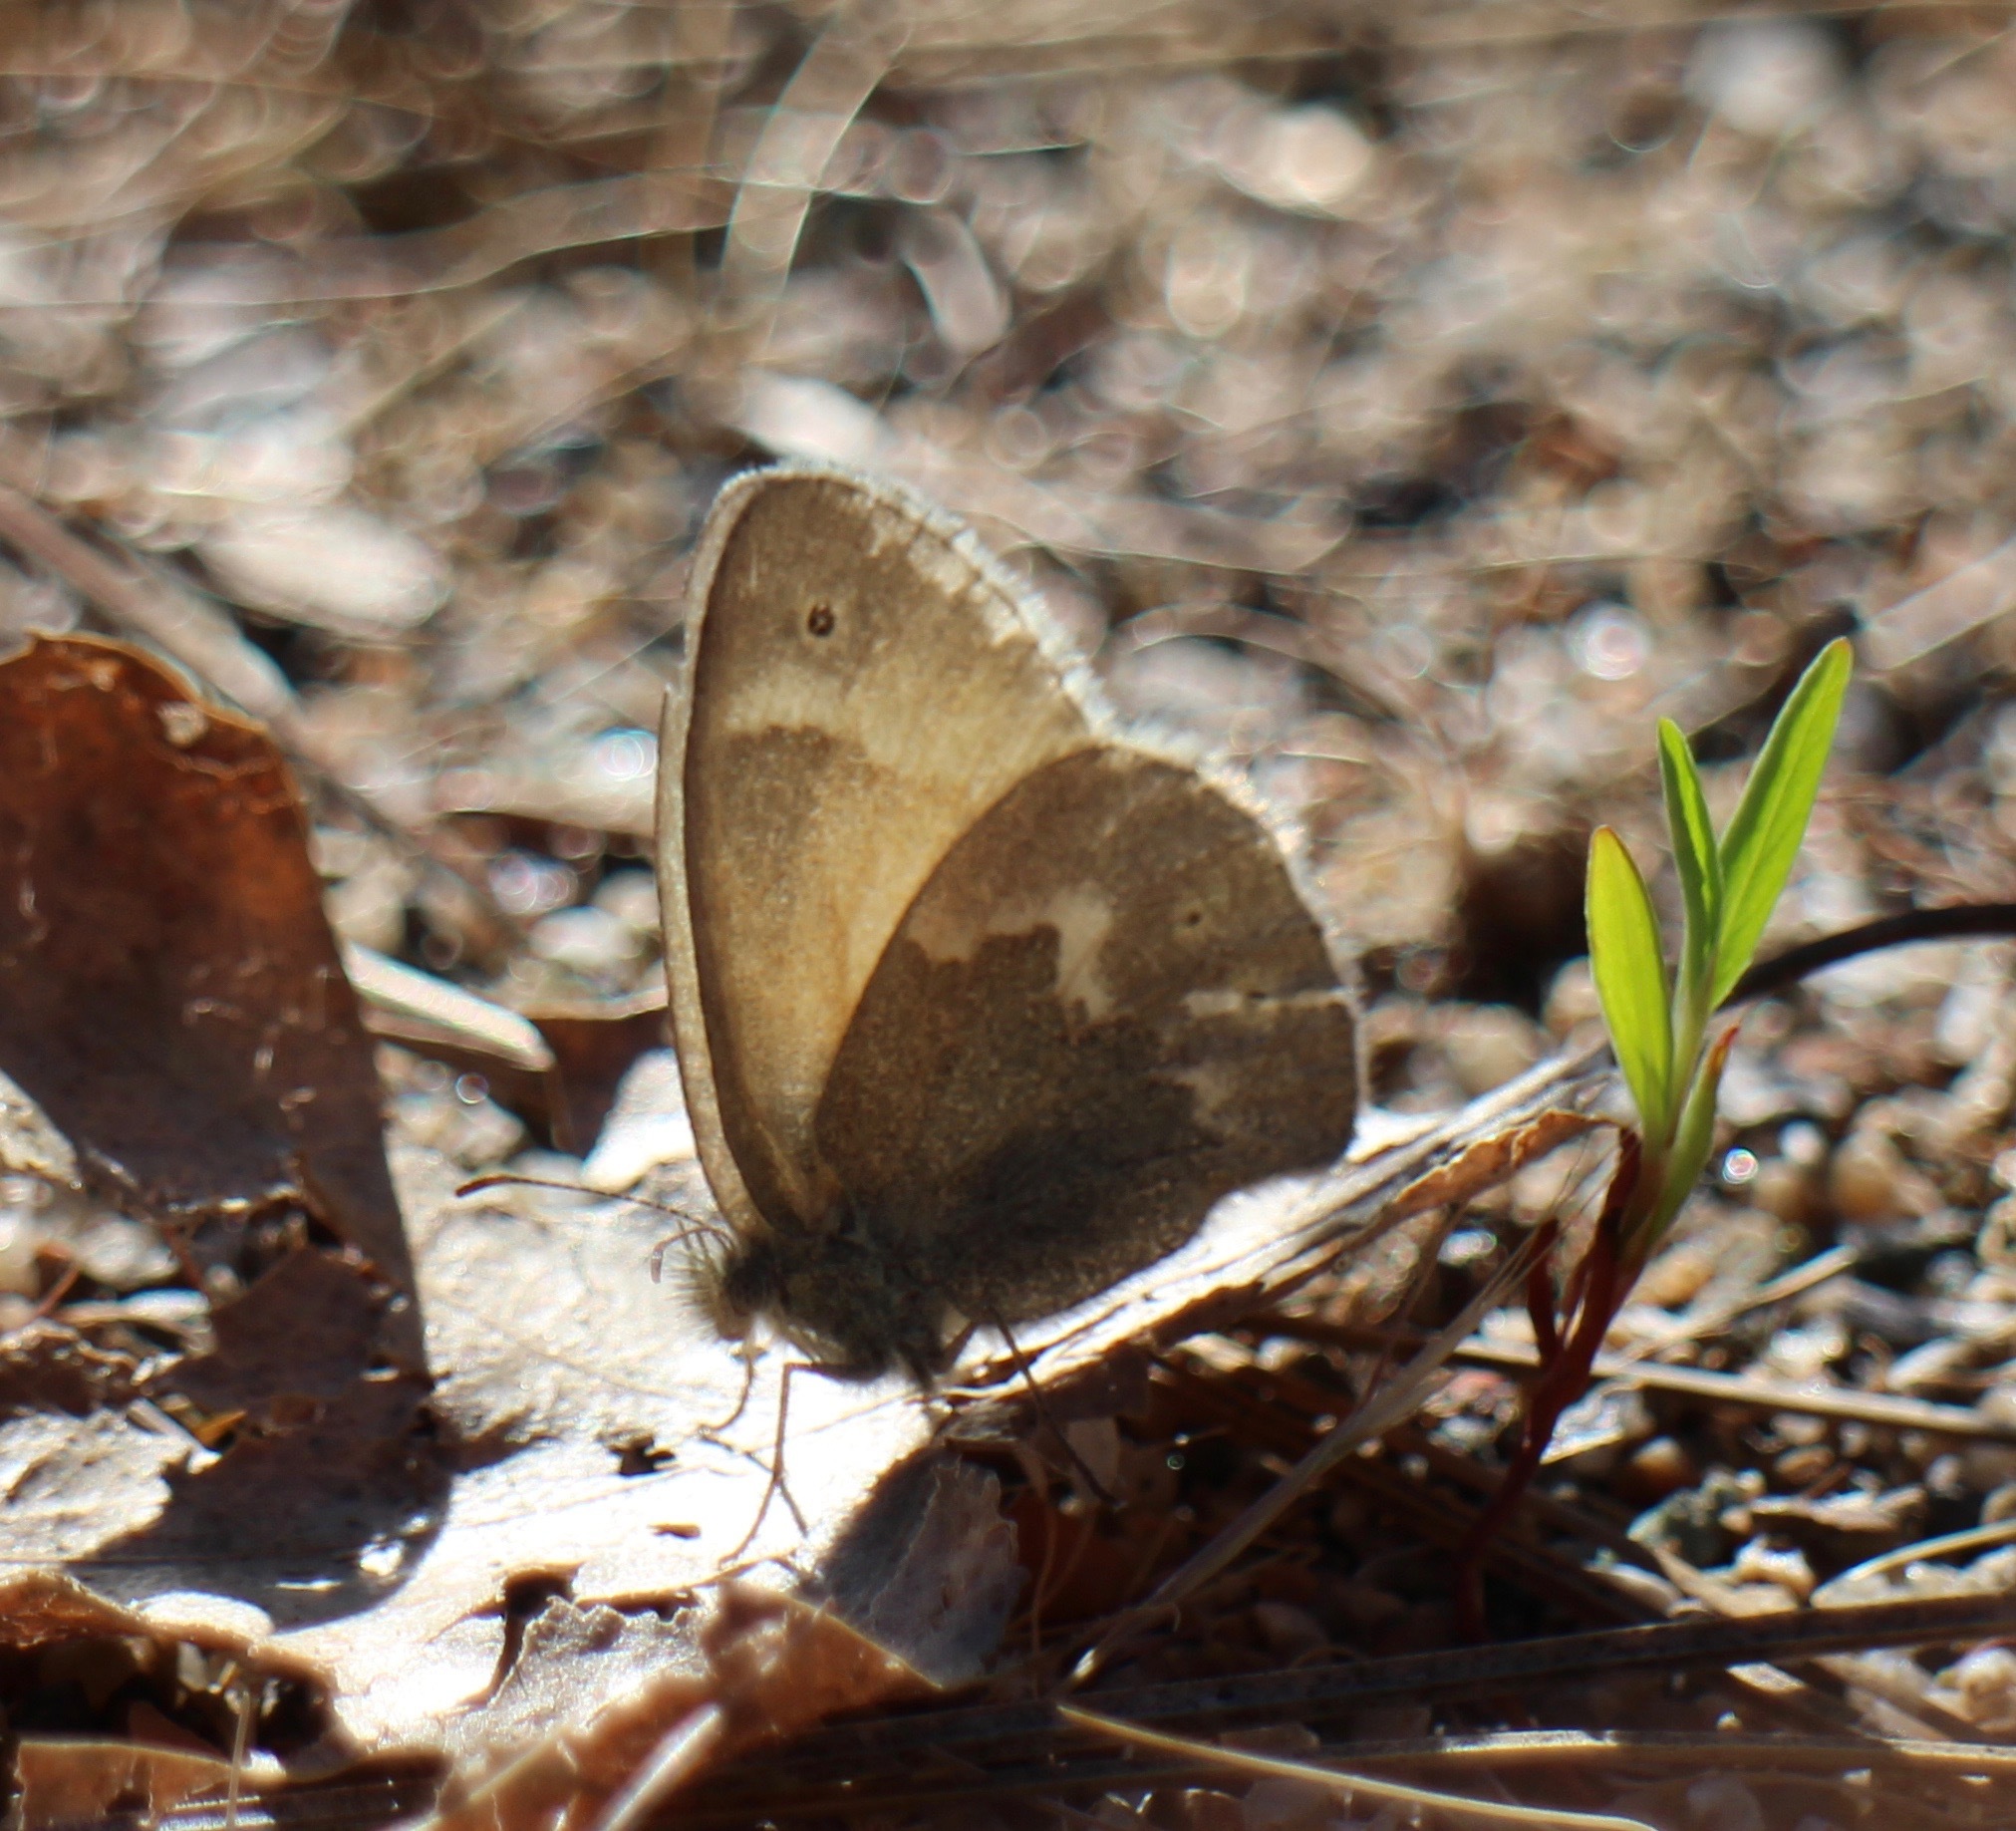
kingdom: Animalia
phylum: Arthropoda
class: Insecta
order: Lepidoptera
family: Nymphalidae
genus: Coenonympha
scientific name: Coenonympha california
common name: Common ringlet
